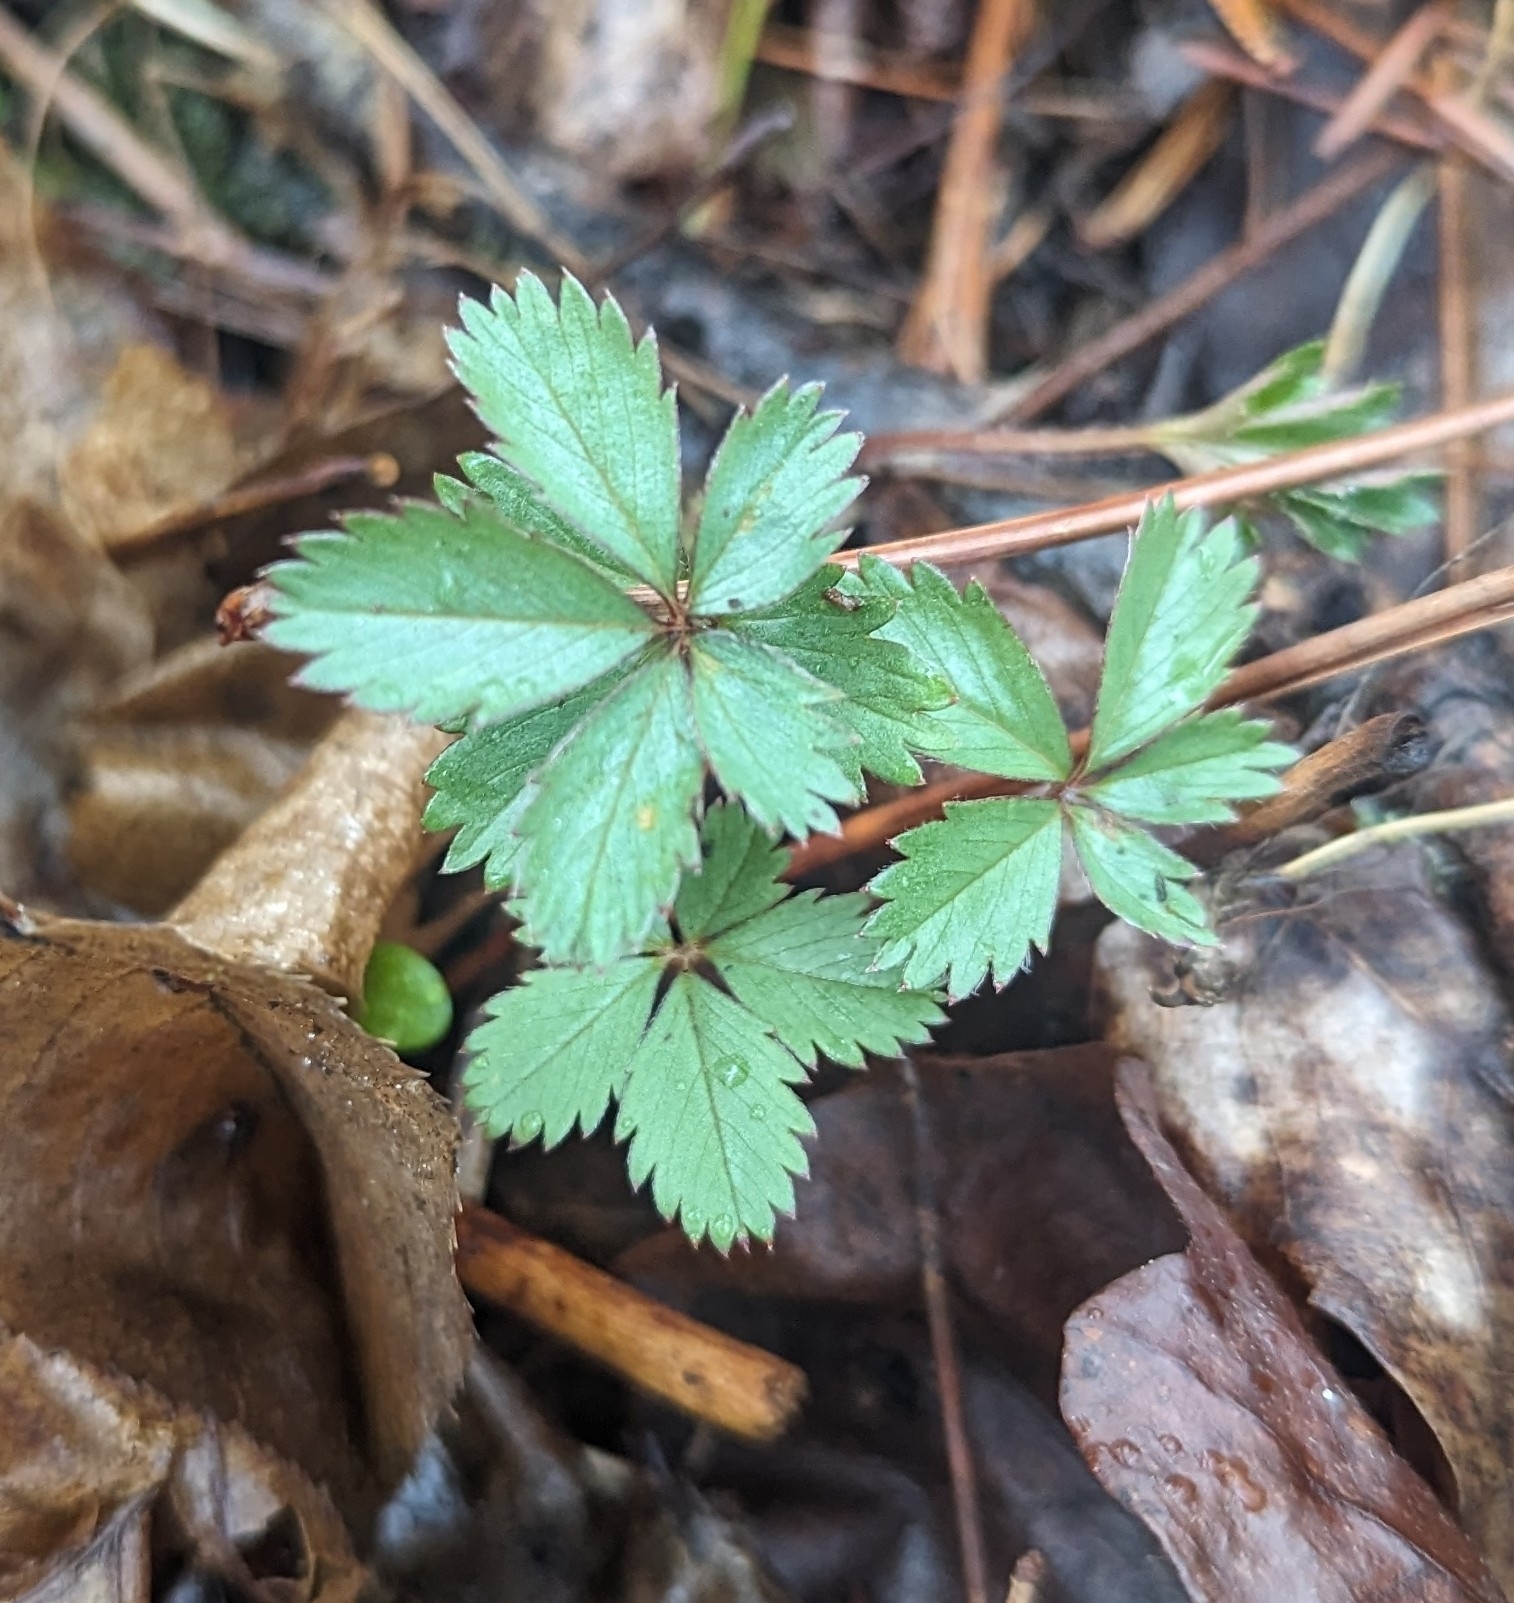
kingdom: Plantae
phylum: Tracheophyta
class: Magnoliopsida
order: Rosales
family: Rosaceae
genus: Potentilla
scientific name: Potentilla simplex
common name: Old field cinquefoil
